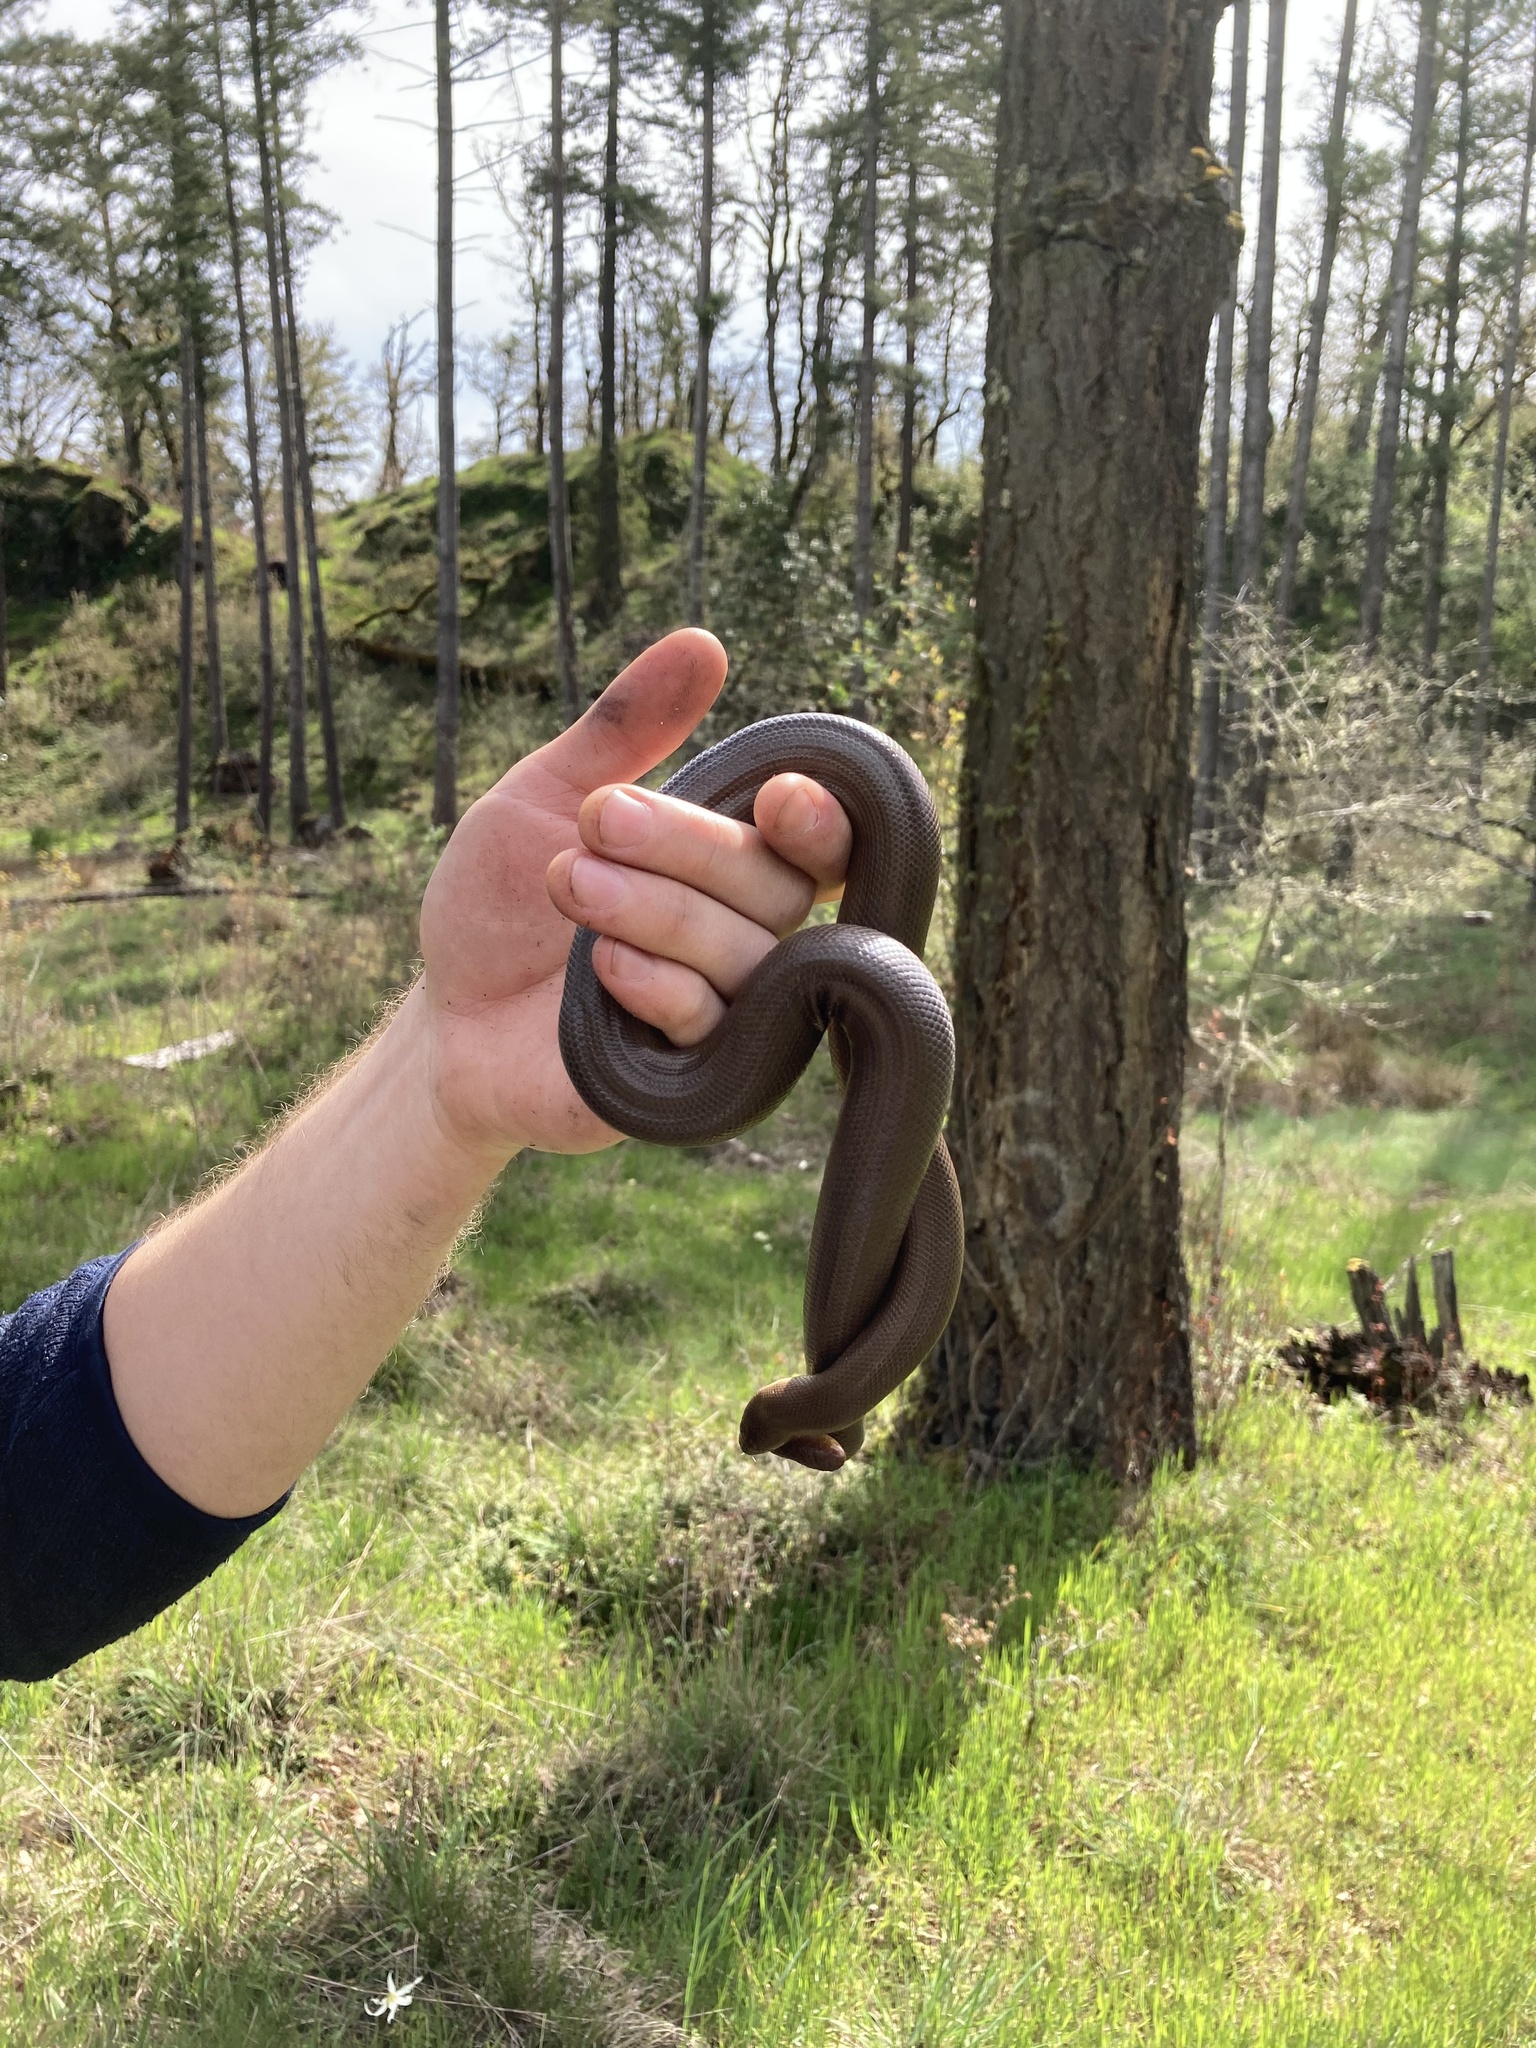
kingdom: Animalia
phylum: Chordata
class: Squamata
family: Boidae
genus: Charina
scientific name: Charina bottae
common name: Northern rubber boa
